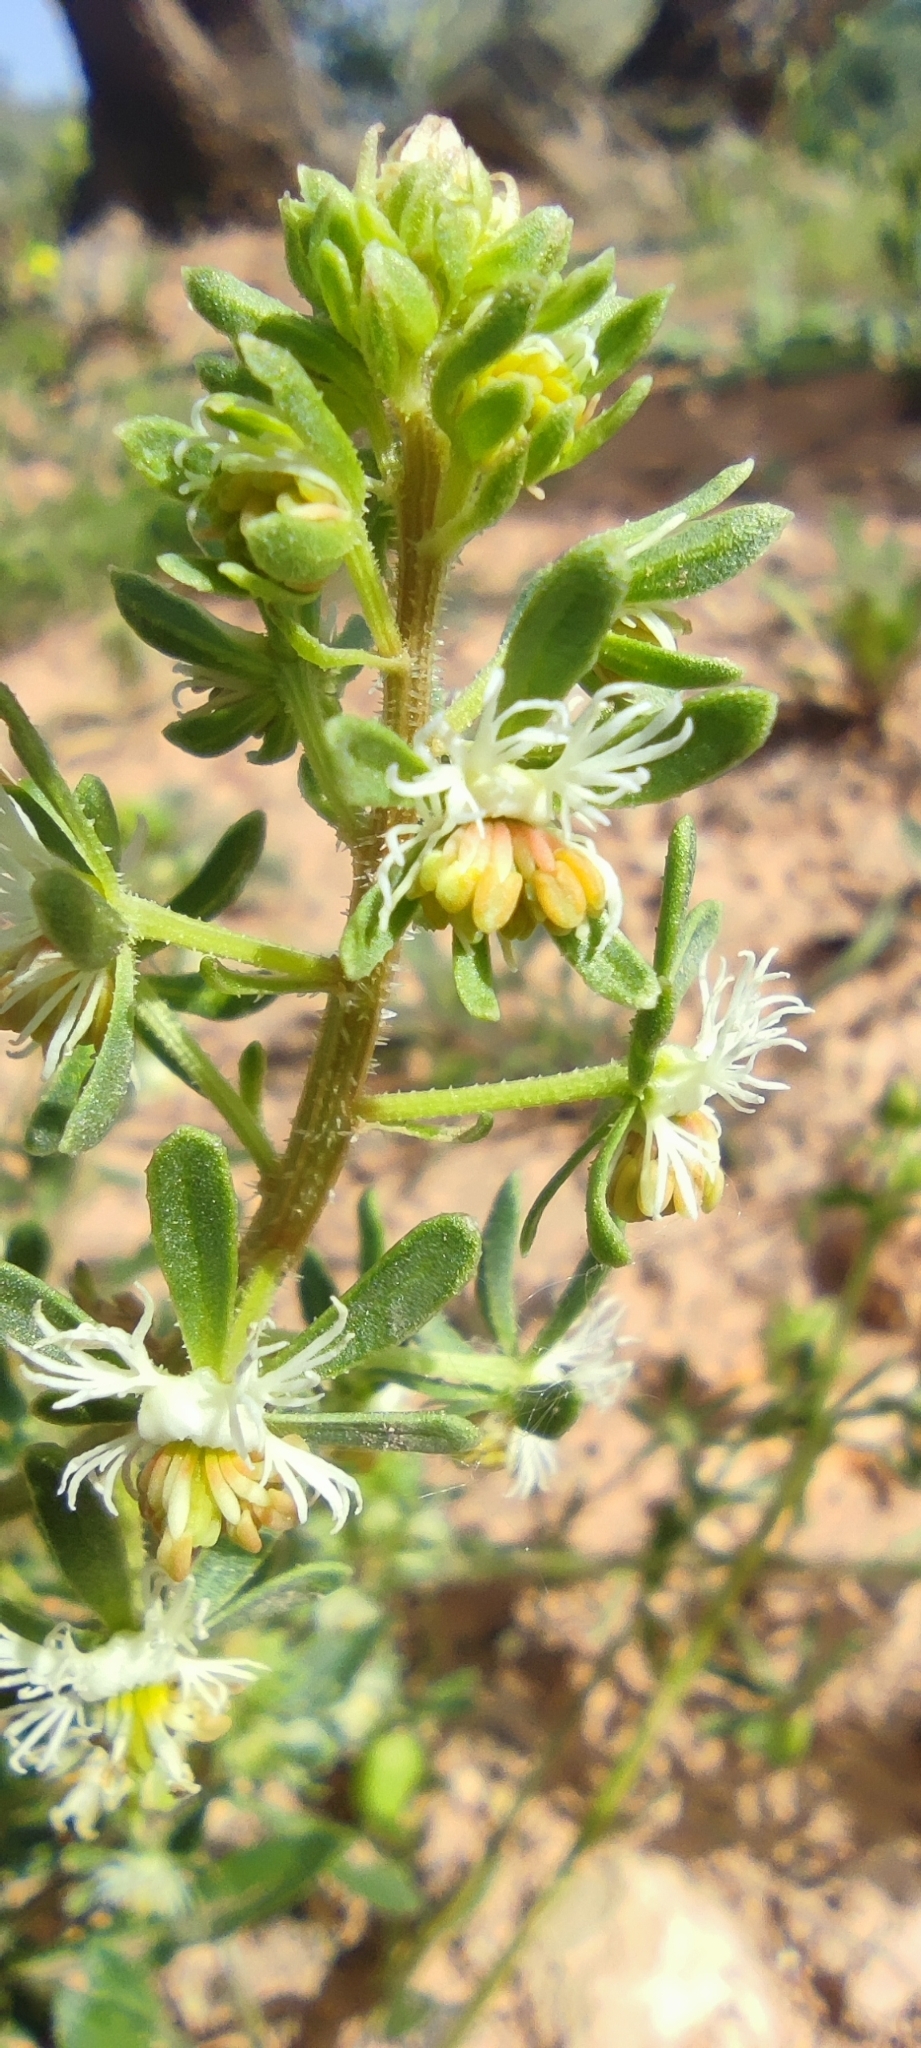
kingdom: Plantae
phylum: Tracheophyta
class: Magnoliopsida
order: Brassicales
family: Resedaceae
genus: Reseda
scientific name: Reseda phyteuma
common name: Corn mignonette
